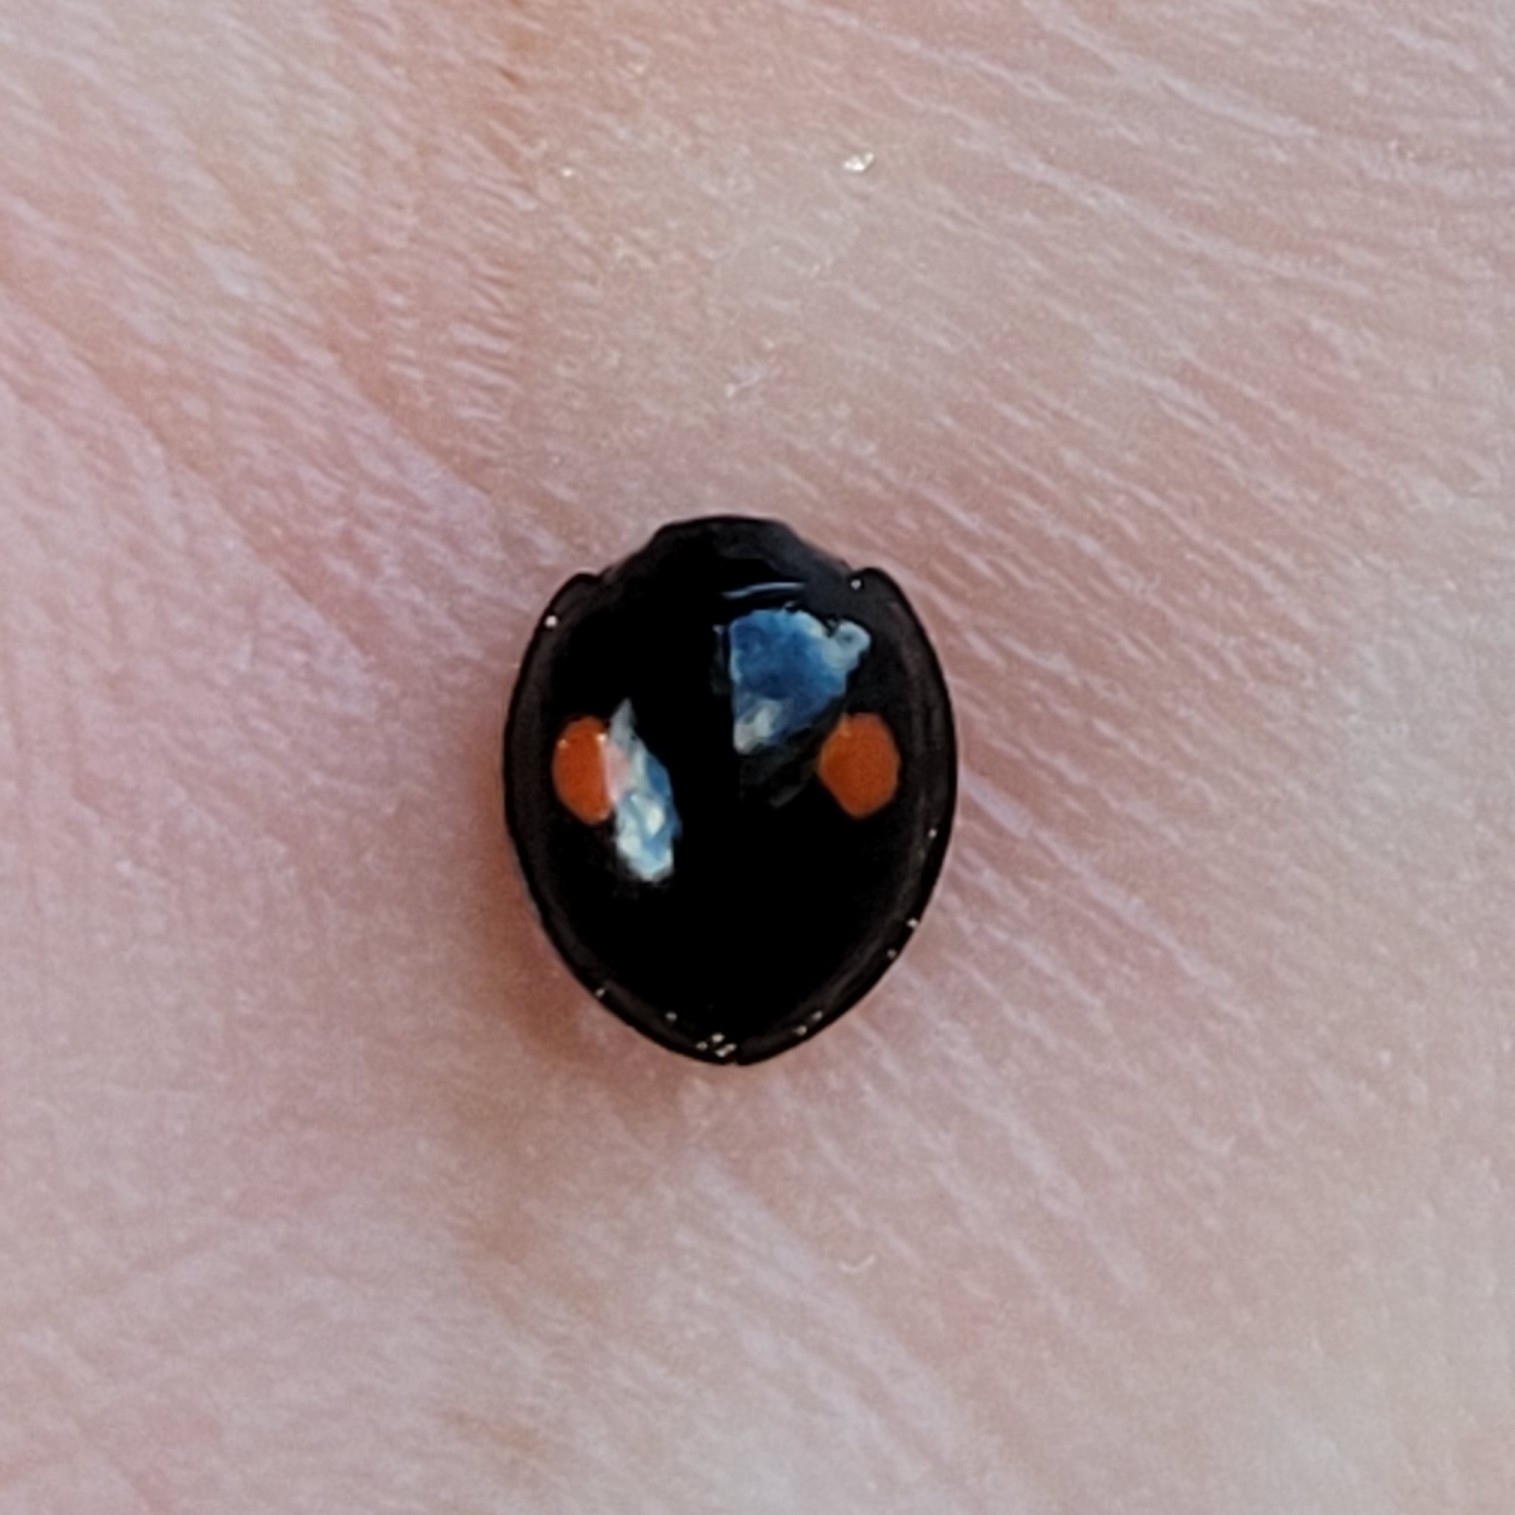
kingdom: Animalia
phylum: Arthropoda
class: Insecta
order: Coleoptera
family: Coccinellidae
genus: Chilocorus
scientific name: Chilocorus stigma
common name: Twicestabbed lady beetle
